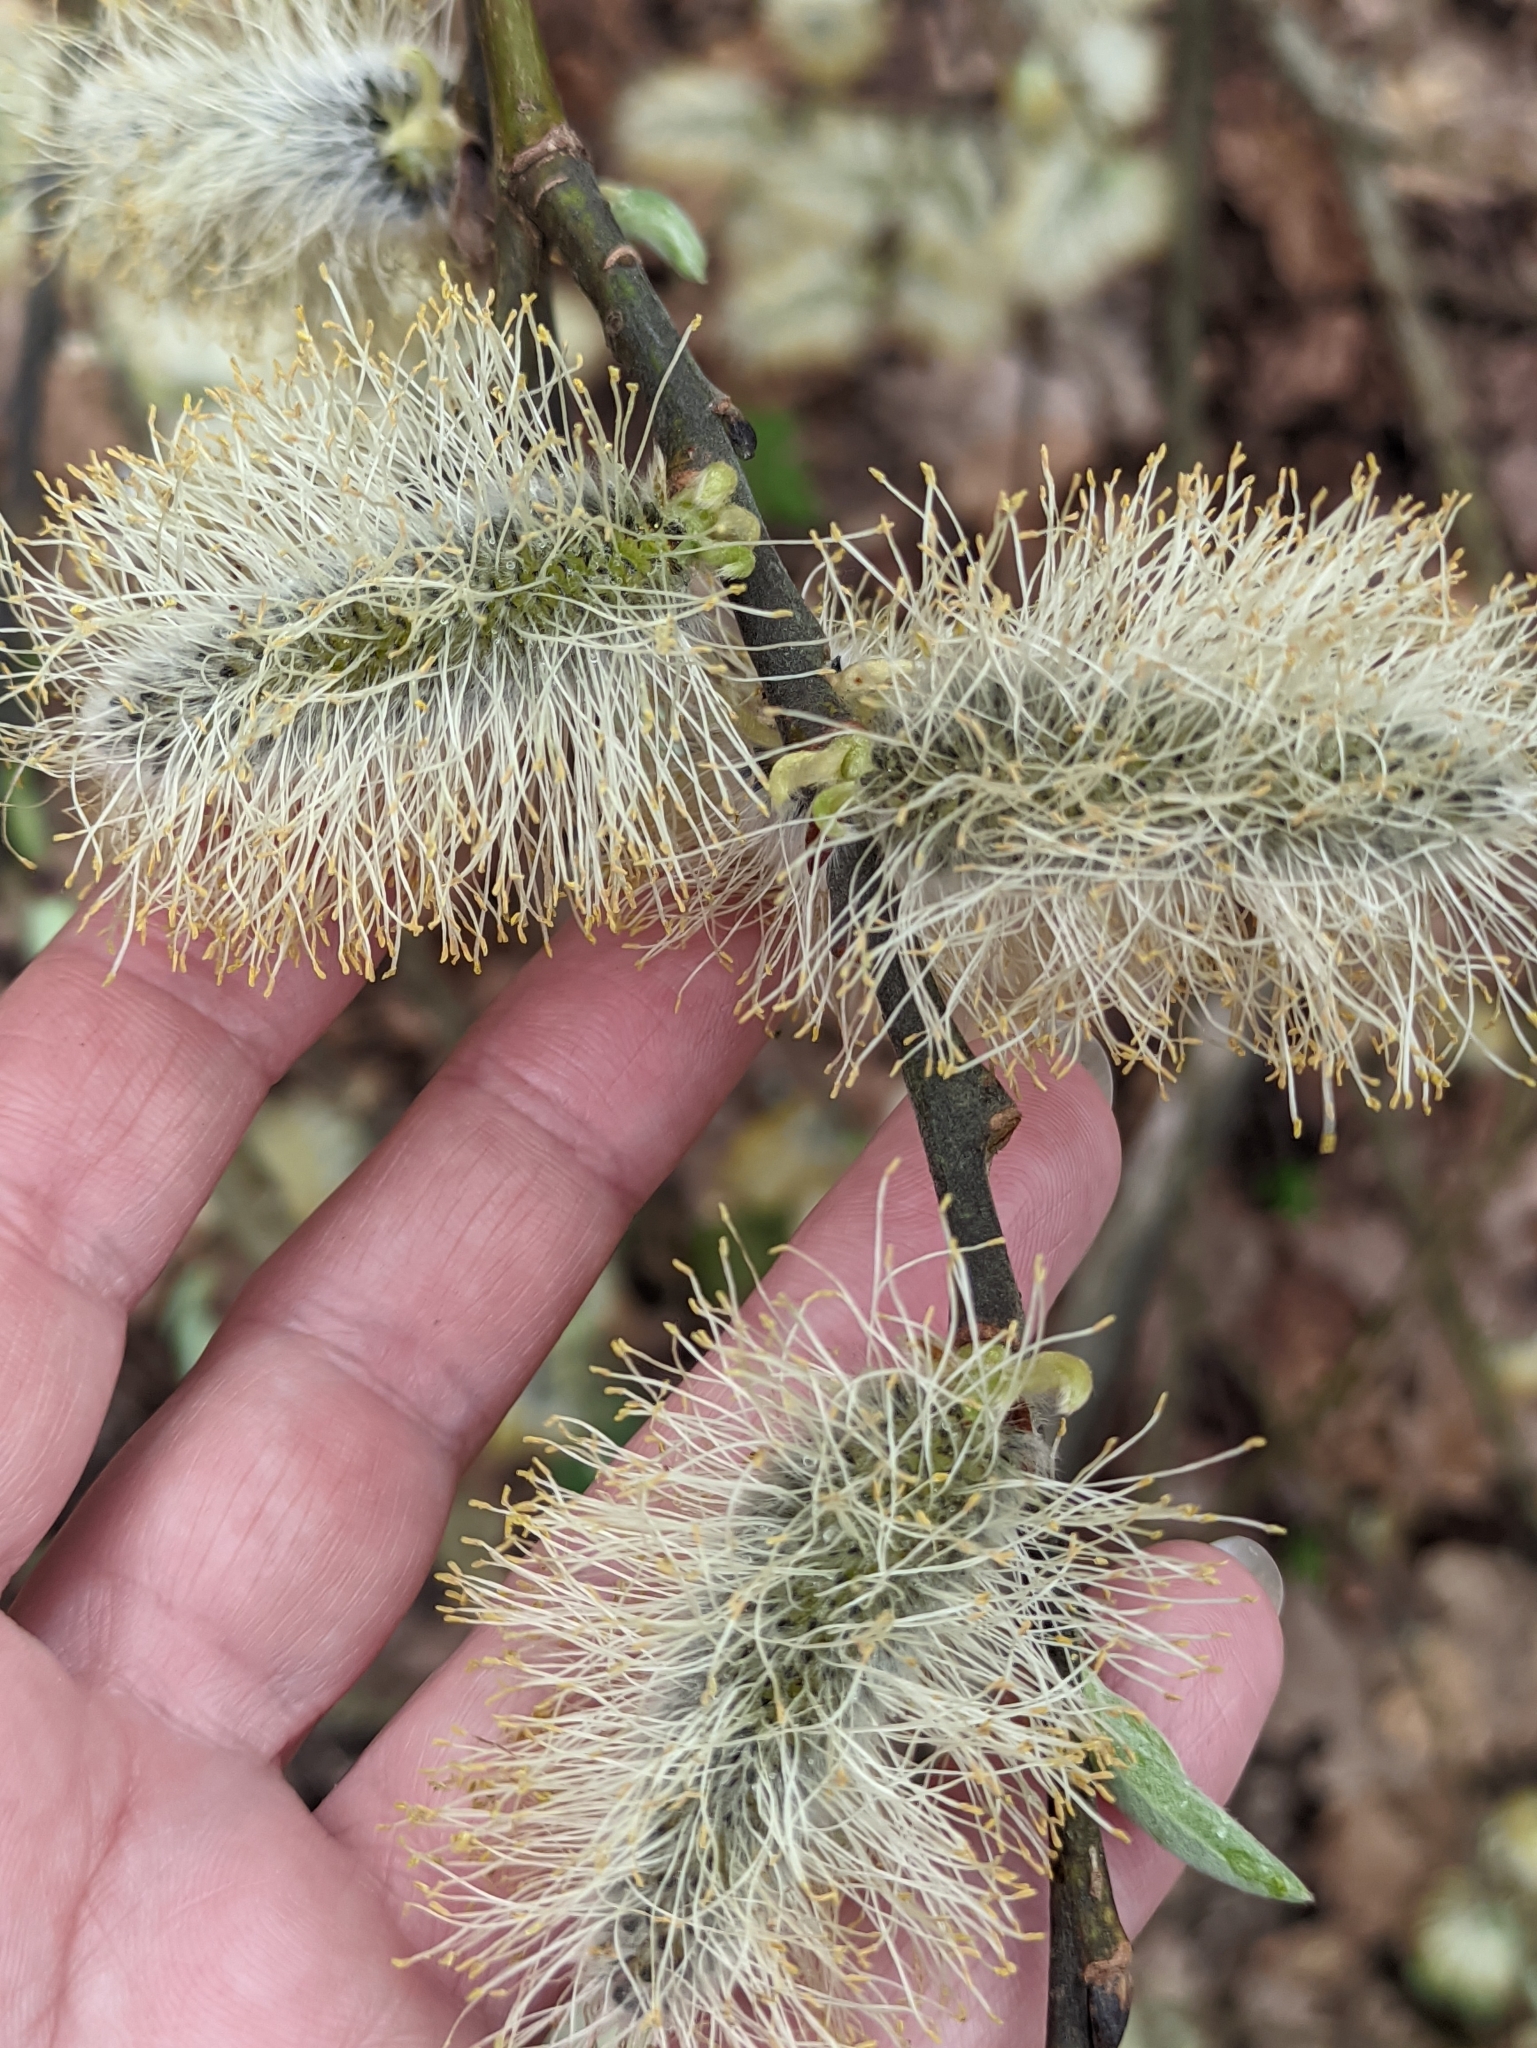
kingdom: Plantae
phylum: Tracheophyta
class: Magnoliopsida
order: Malpighiales
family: Salicaceae
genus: Salix
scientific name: Salix caprea
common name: Goat willow
